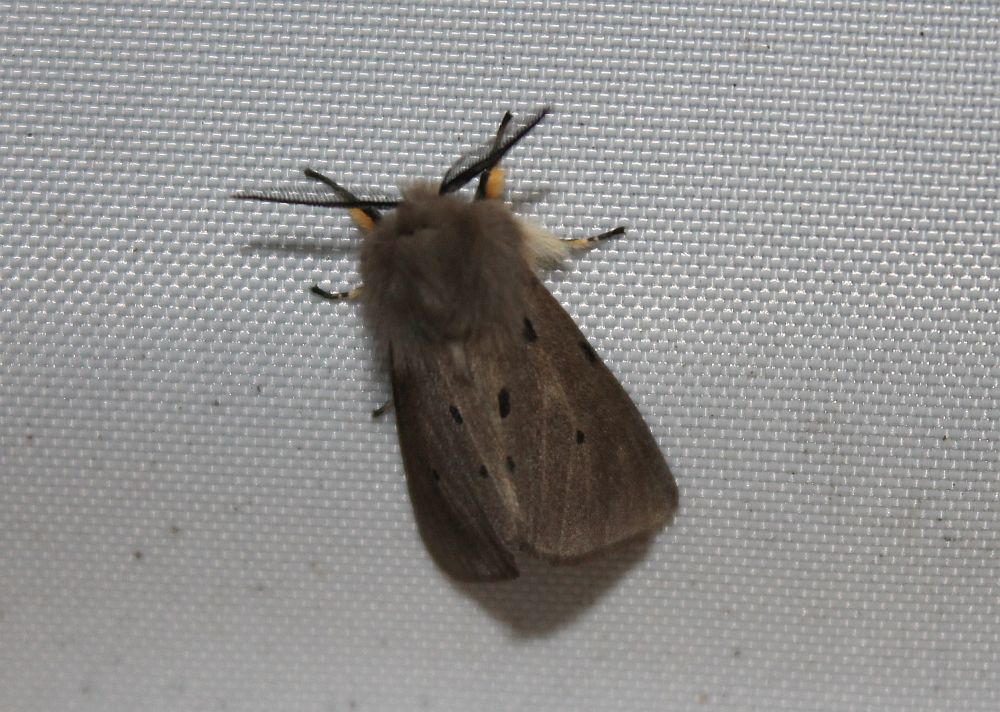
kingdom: Animalia
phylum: Arthropoda
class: Insecta
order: Lepidoptera
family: Erebidae
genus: Diaphora
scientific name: Diaphora mendica
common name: Muslin moth
